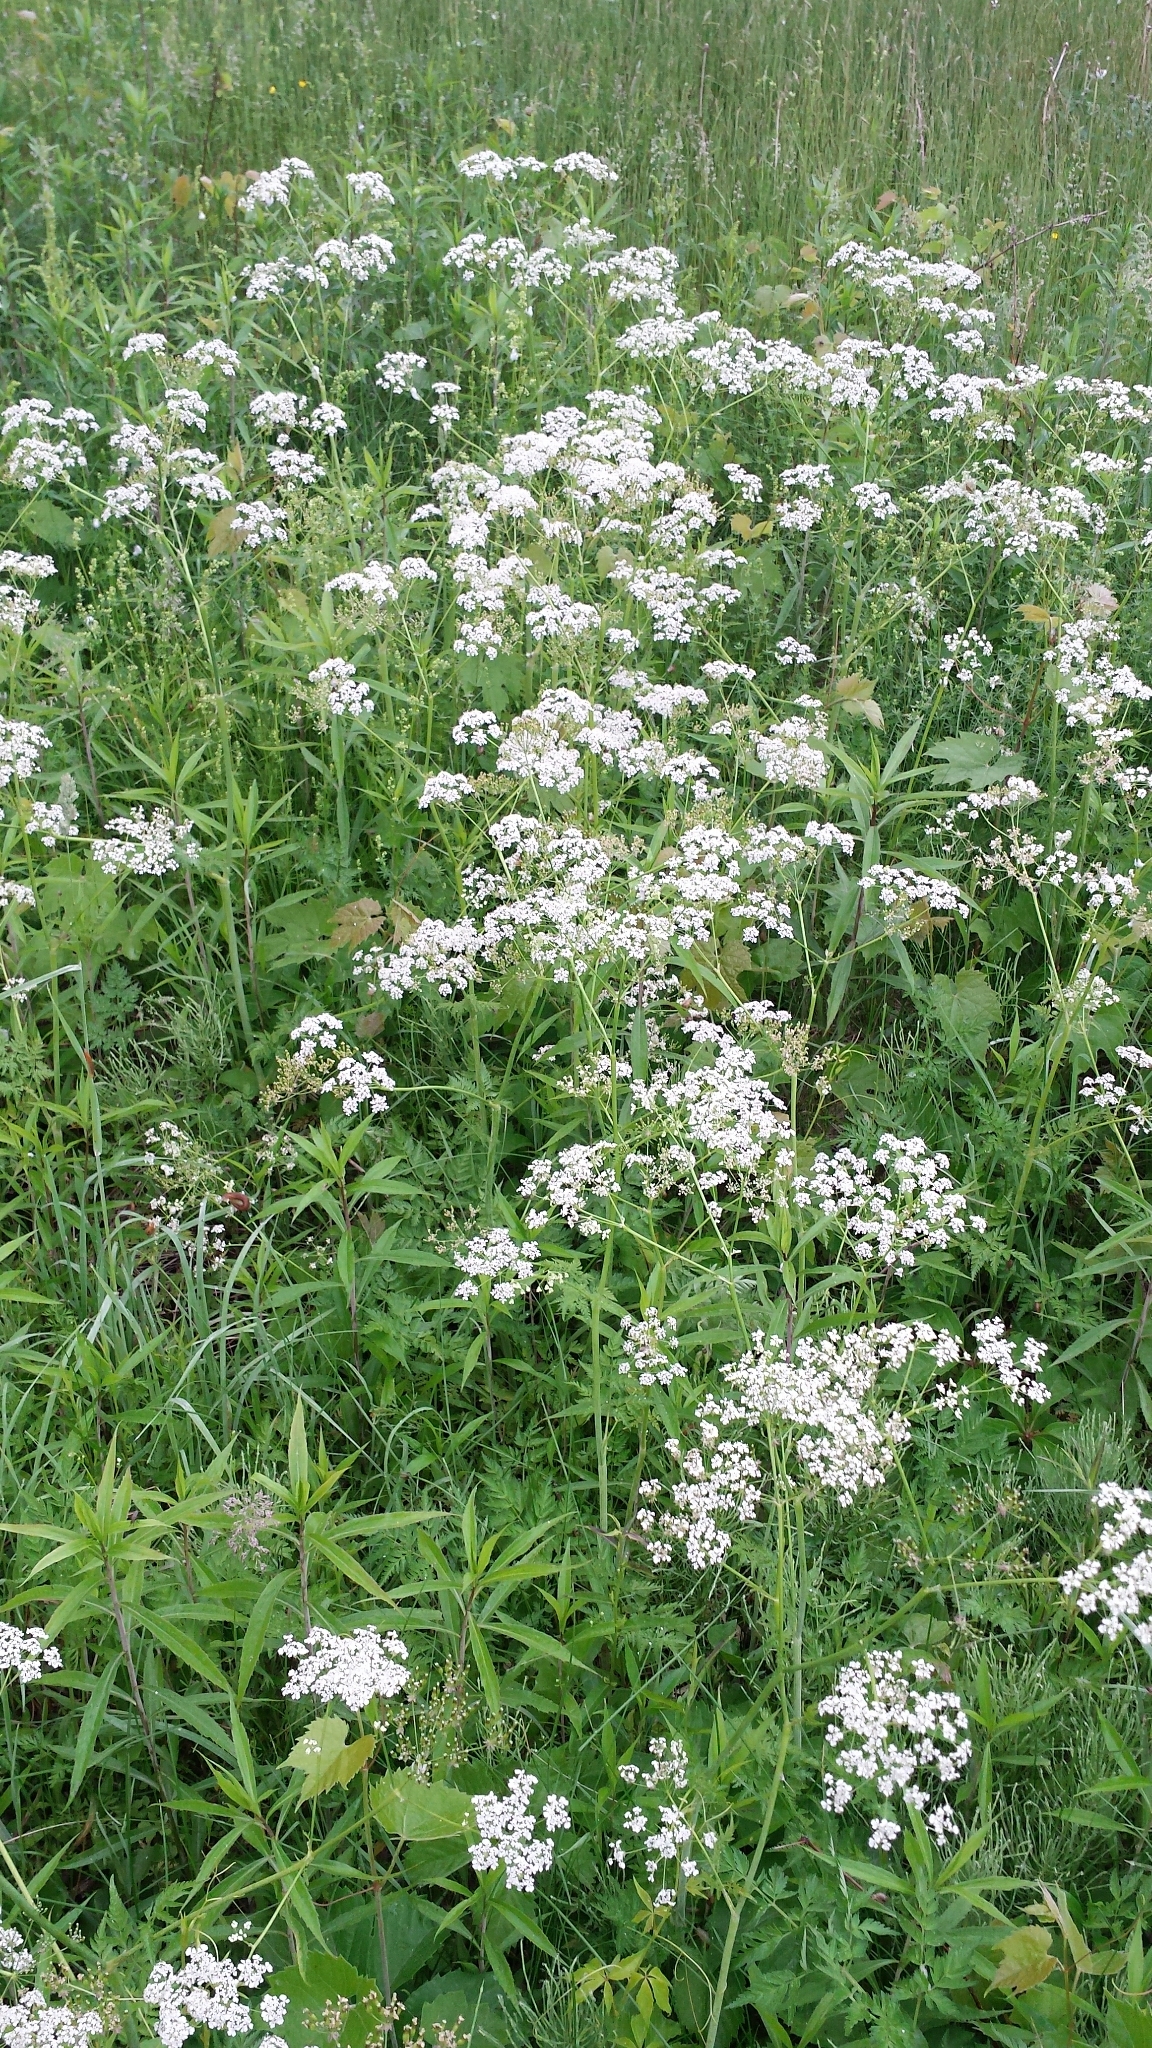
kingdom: Plantae
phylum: Tracheophyta
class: Magnoliopsida
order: Apiales
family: Apiaceae
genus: Anthriscus
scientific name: Anthriscus sylvestris
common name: Cow parsley
